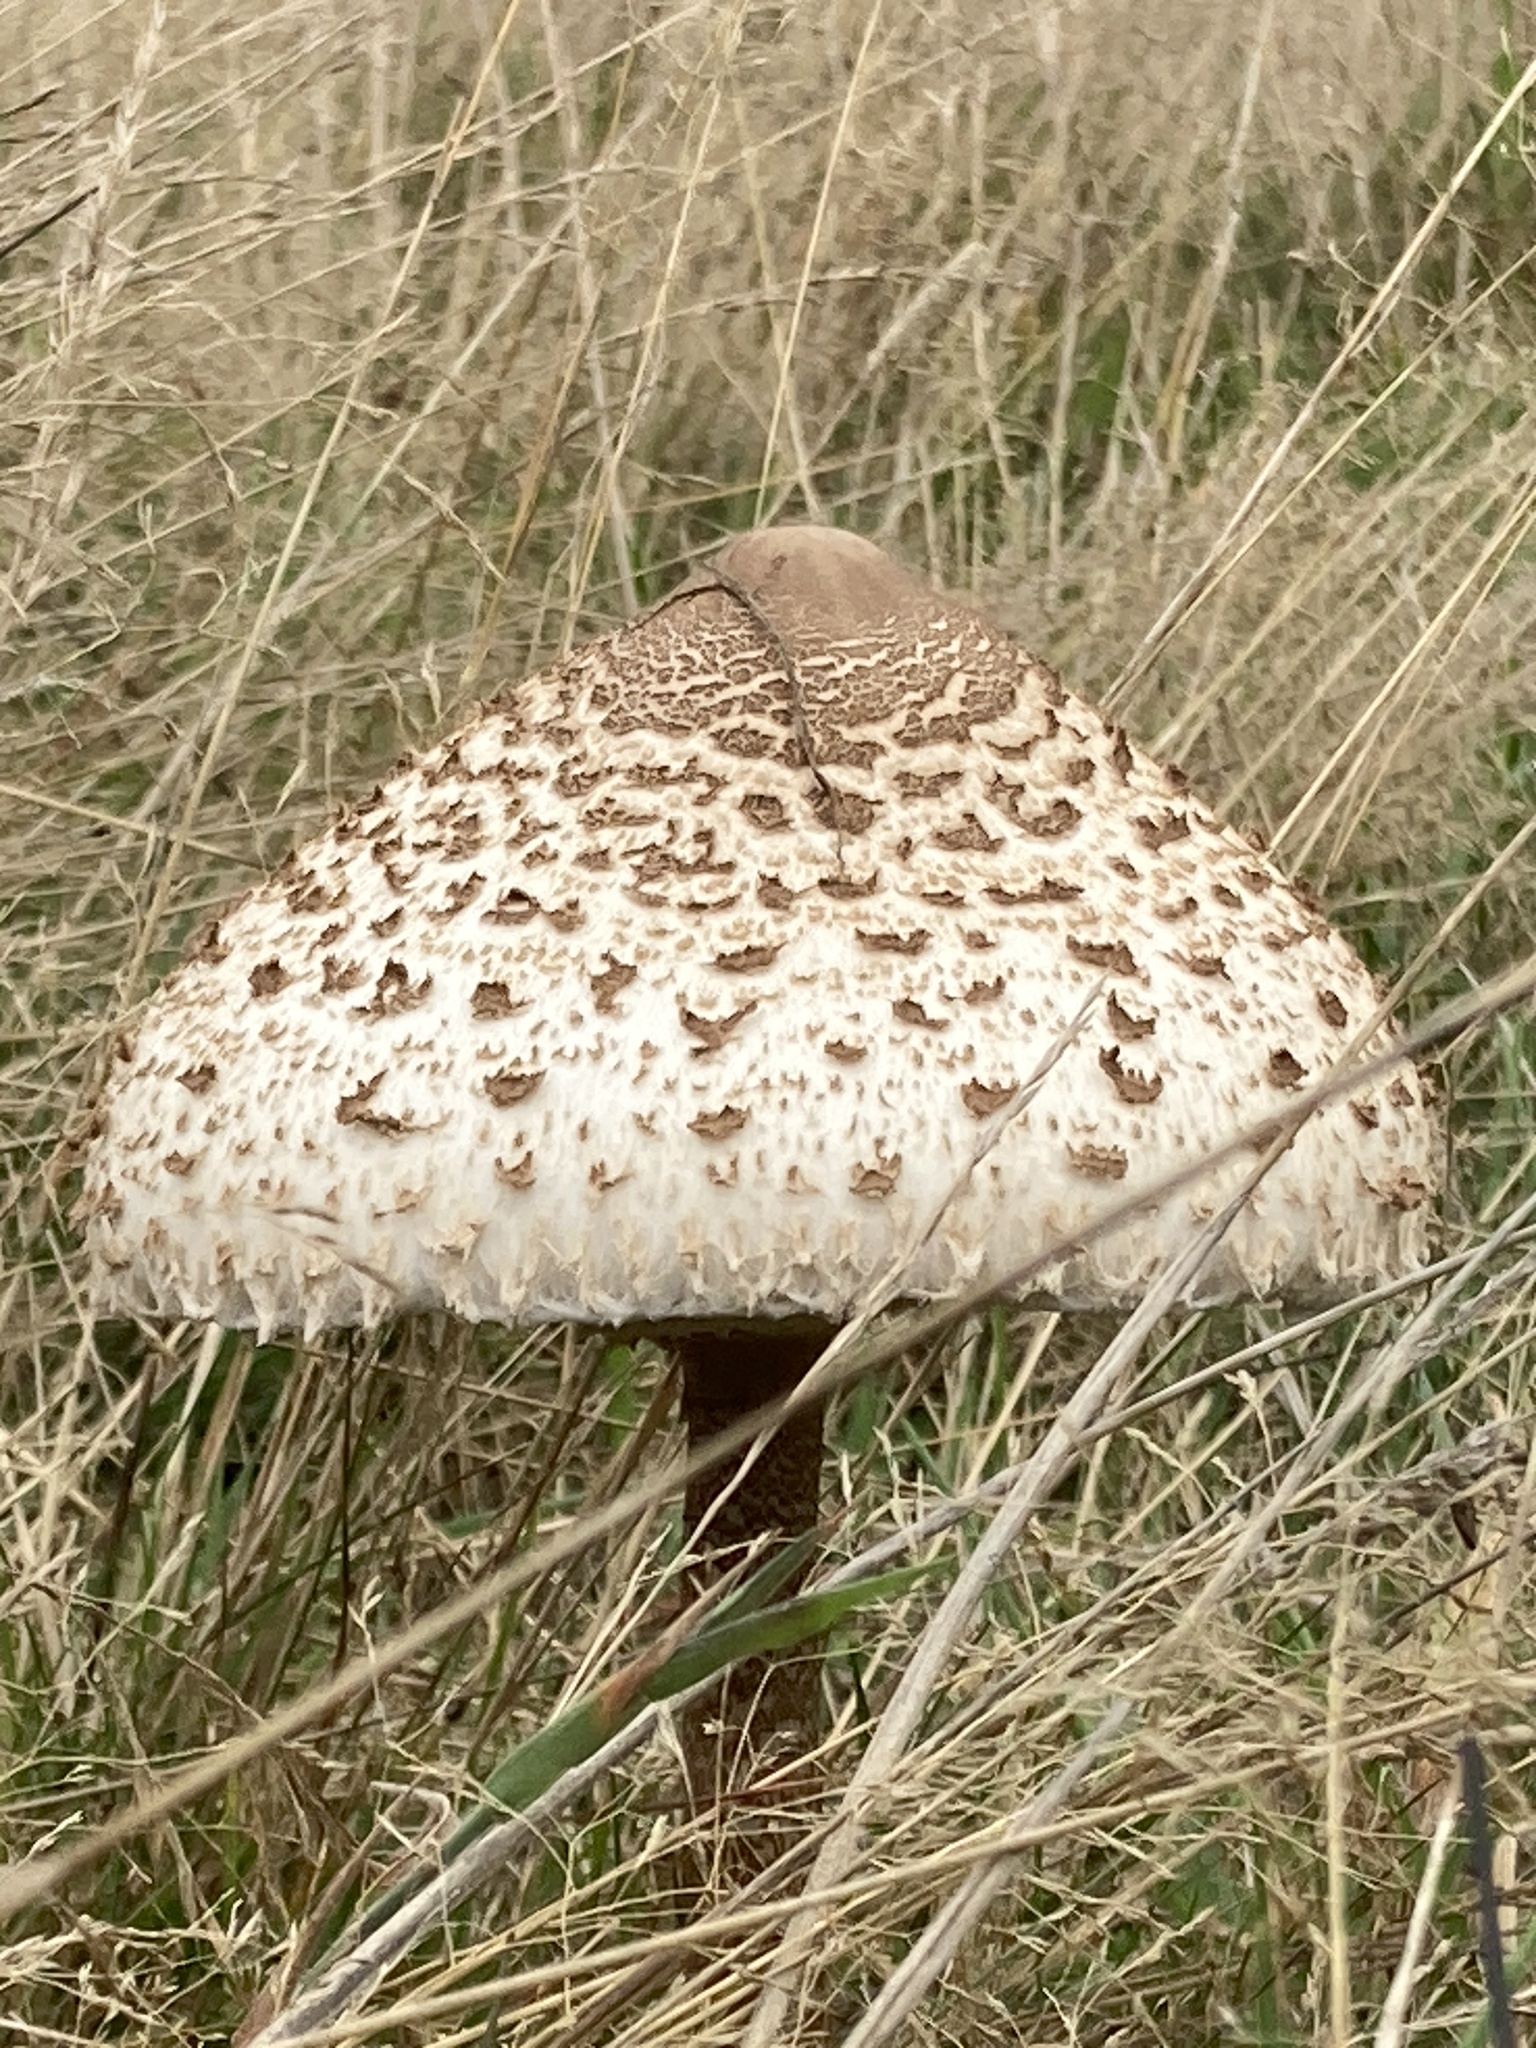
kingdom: Fungi
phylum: Basidiomycota
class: Agaricomycetes
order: Agaricales
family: Agaricaceae
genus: Macrolepiota
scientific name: Macrolepiota procera
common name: Parasol
